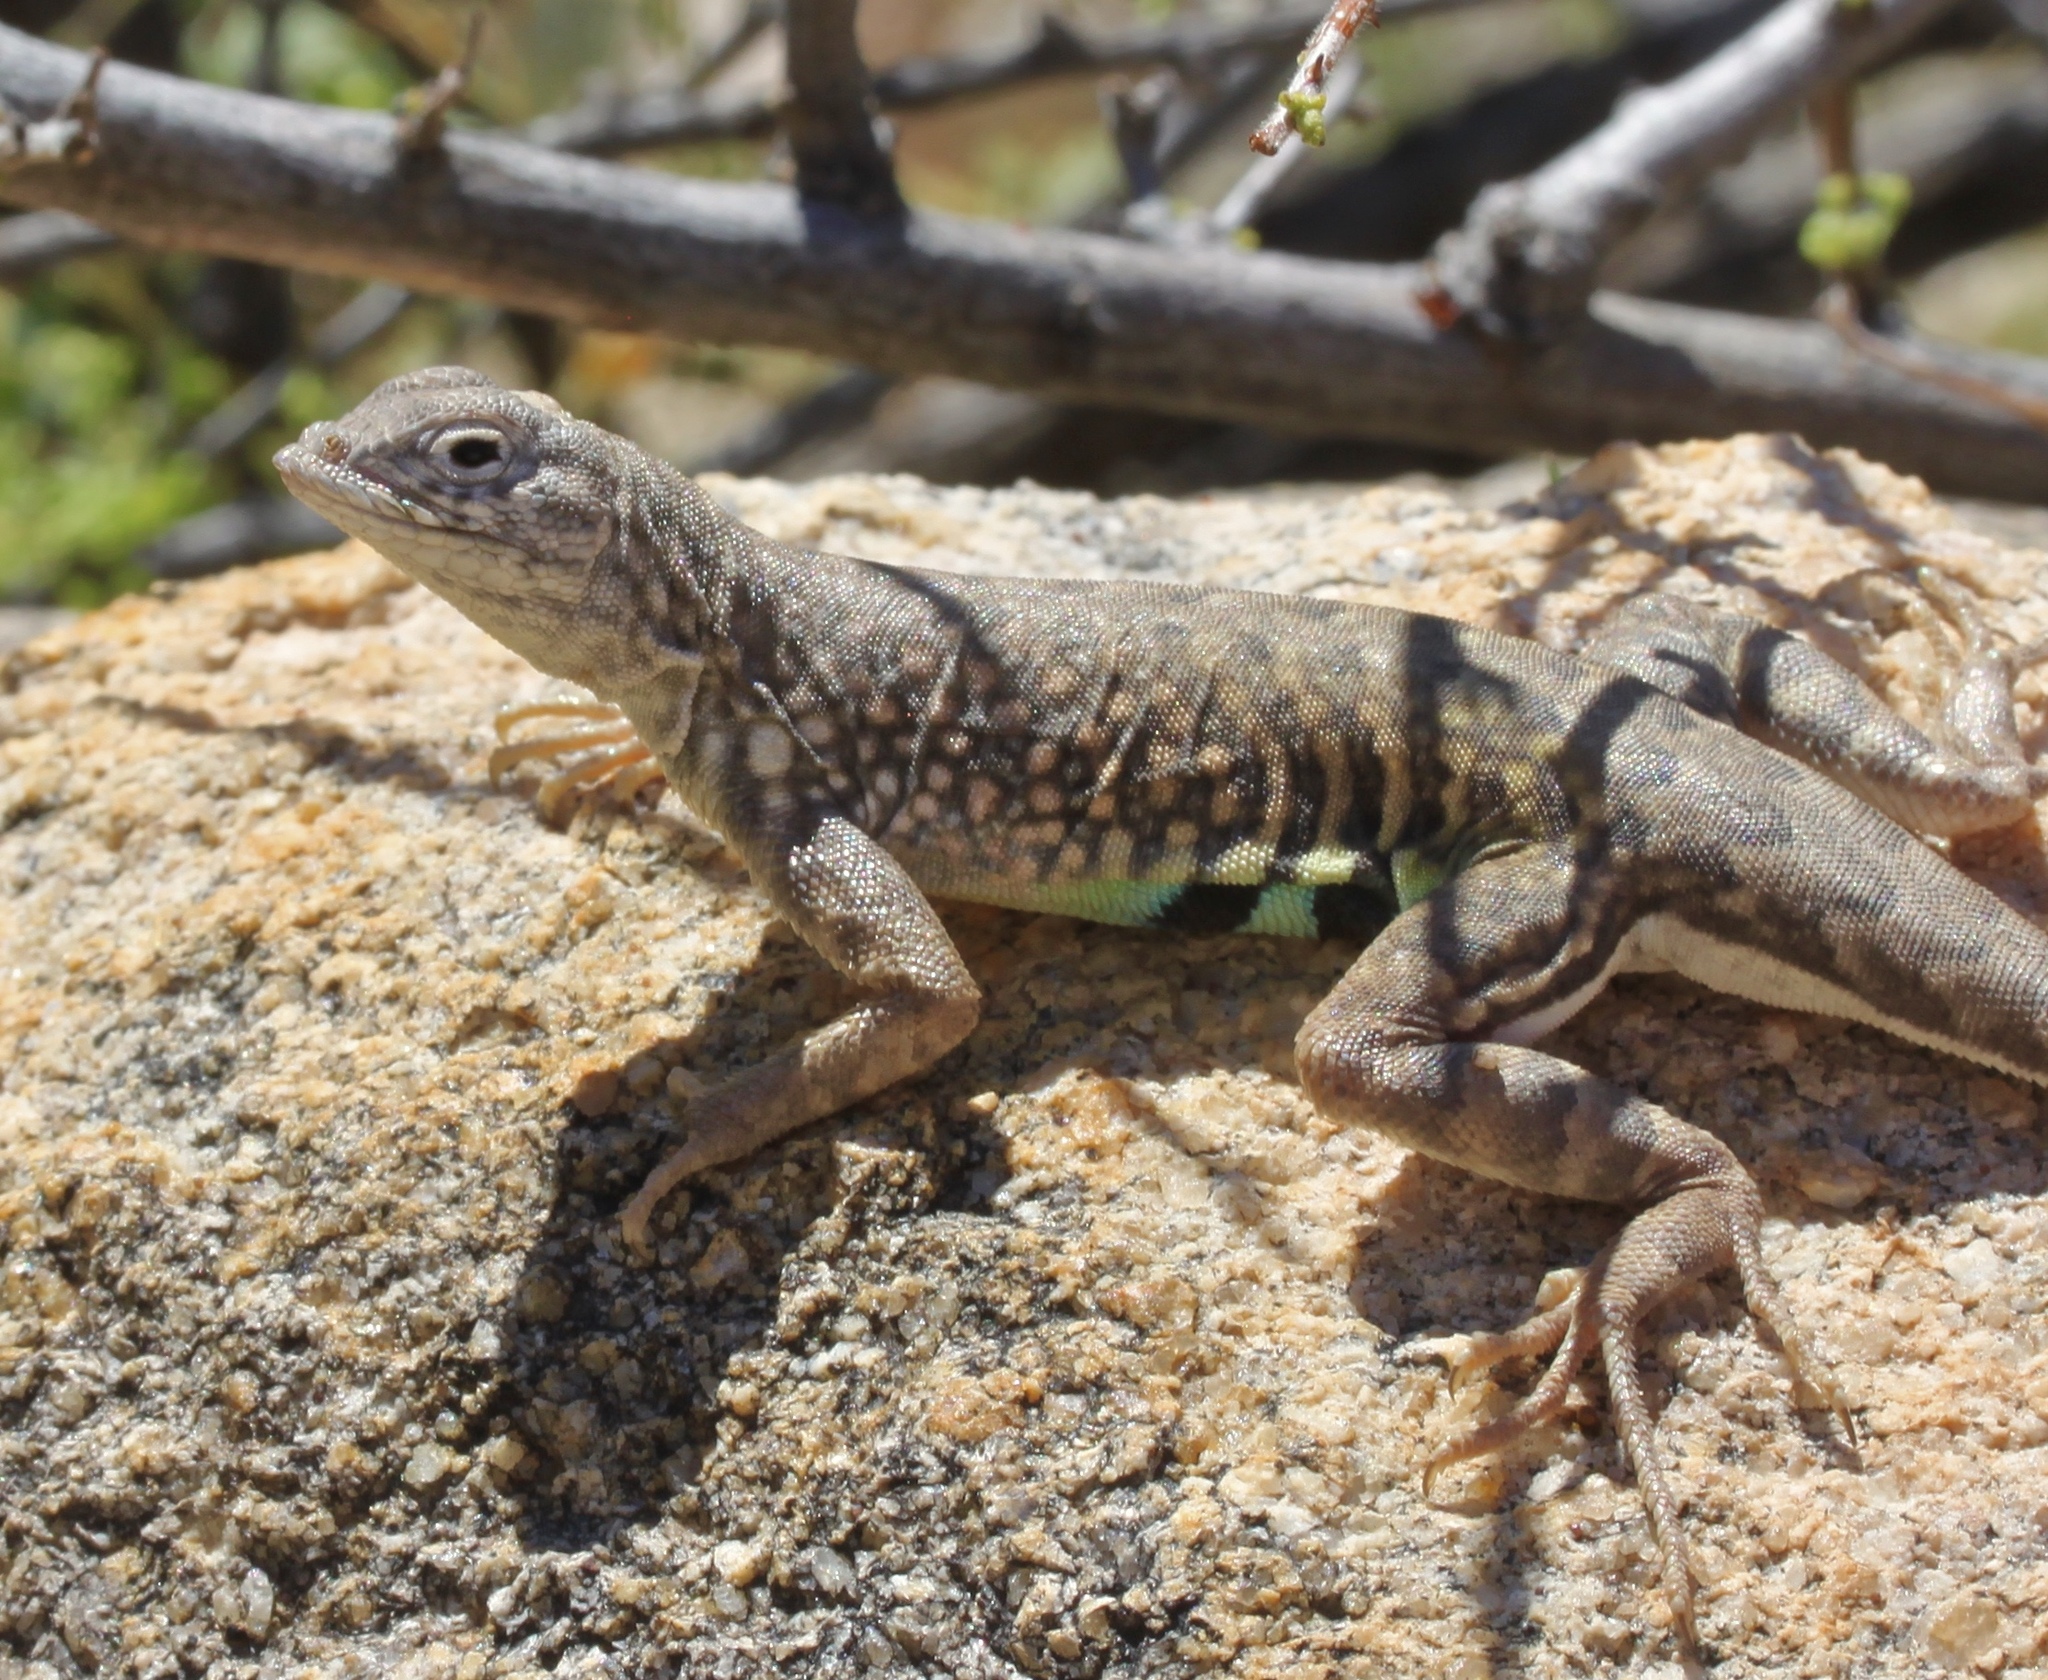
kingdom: Animalia
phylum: Chordata
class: Squamata
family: Phrynosomatidae
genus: Cophosaurus
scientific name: Cophosaurus texanus
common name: Greater earless lizard
